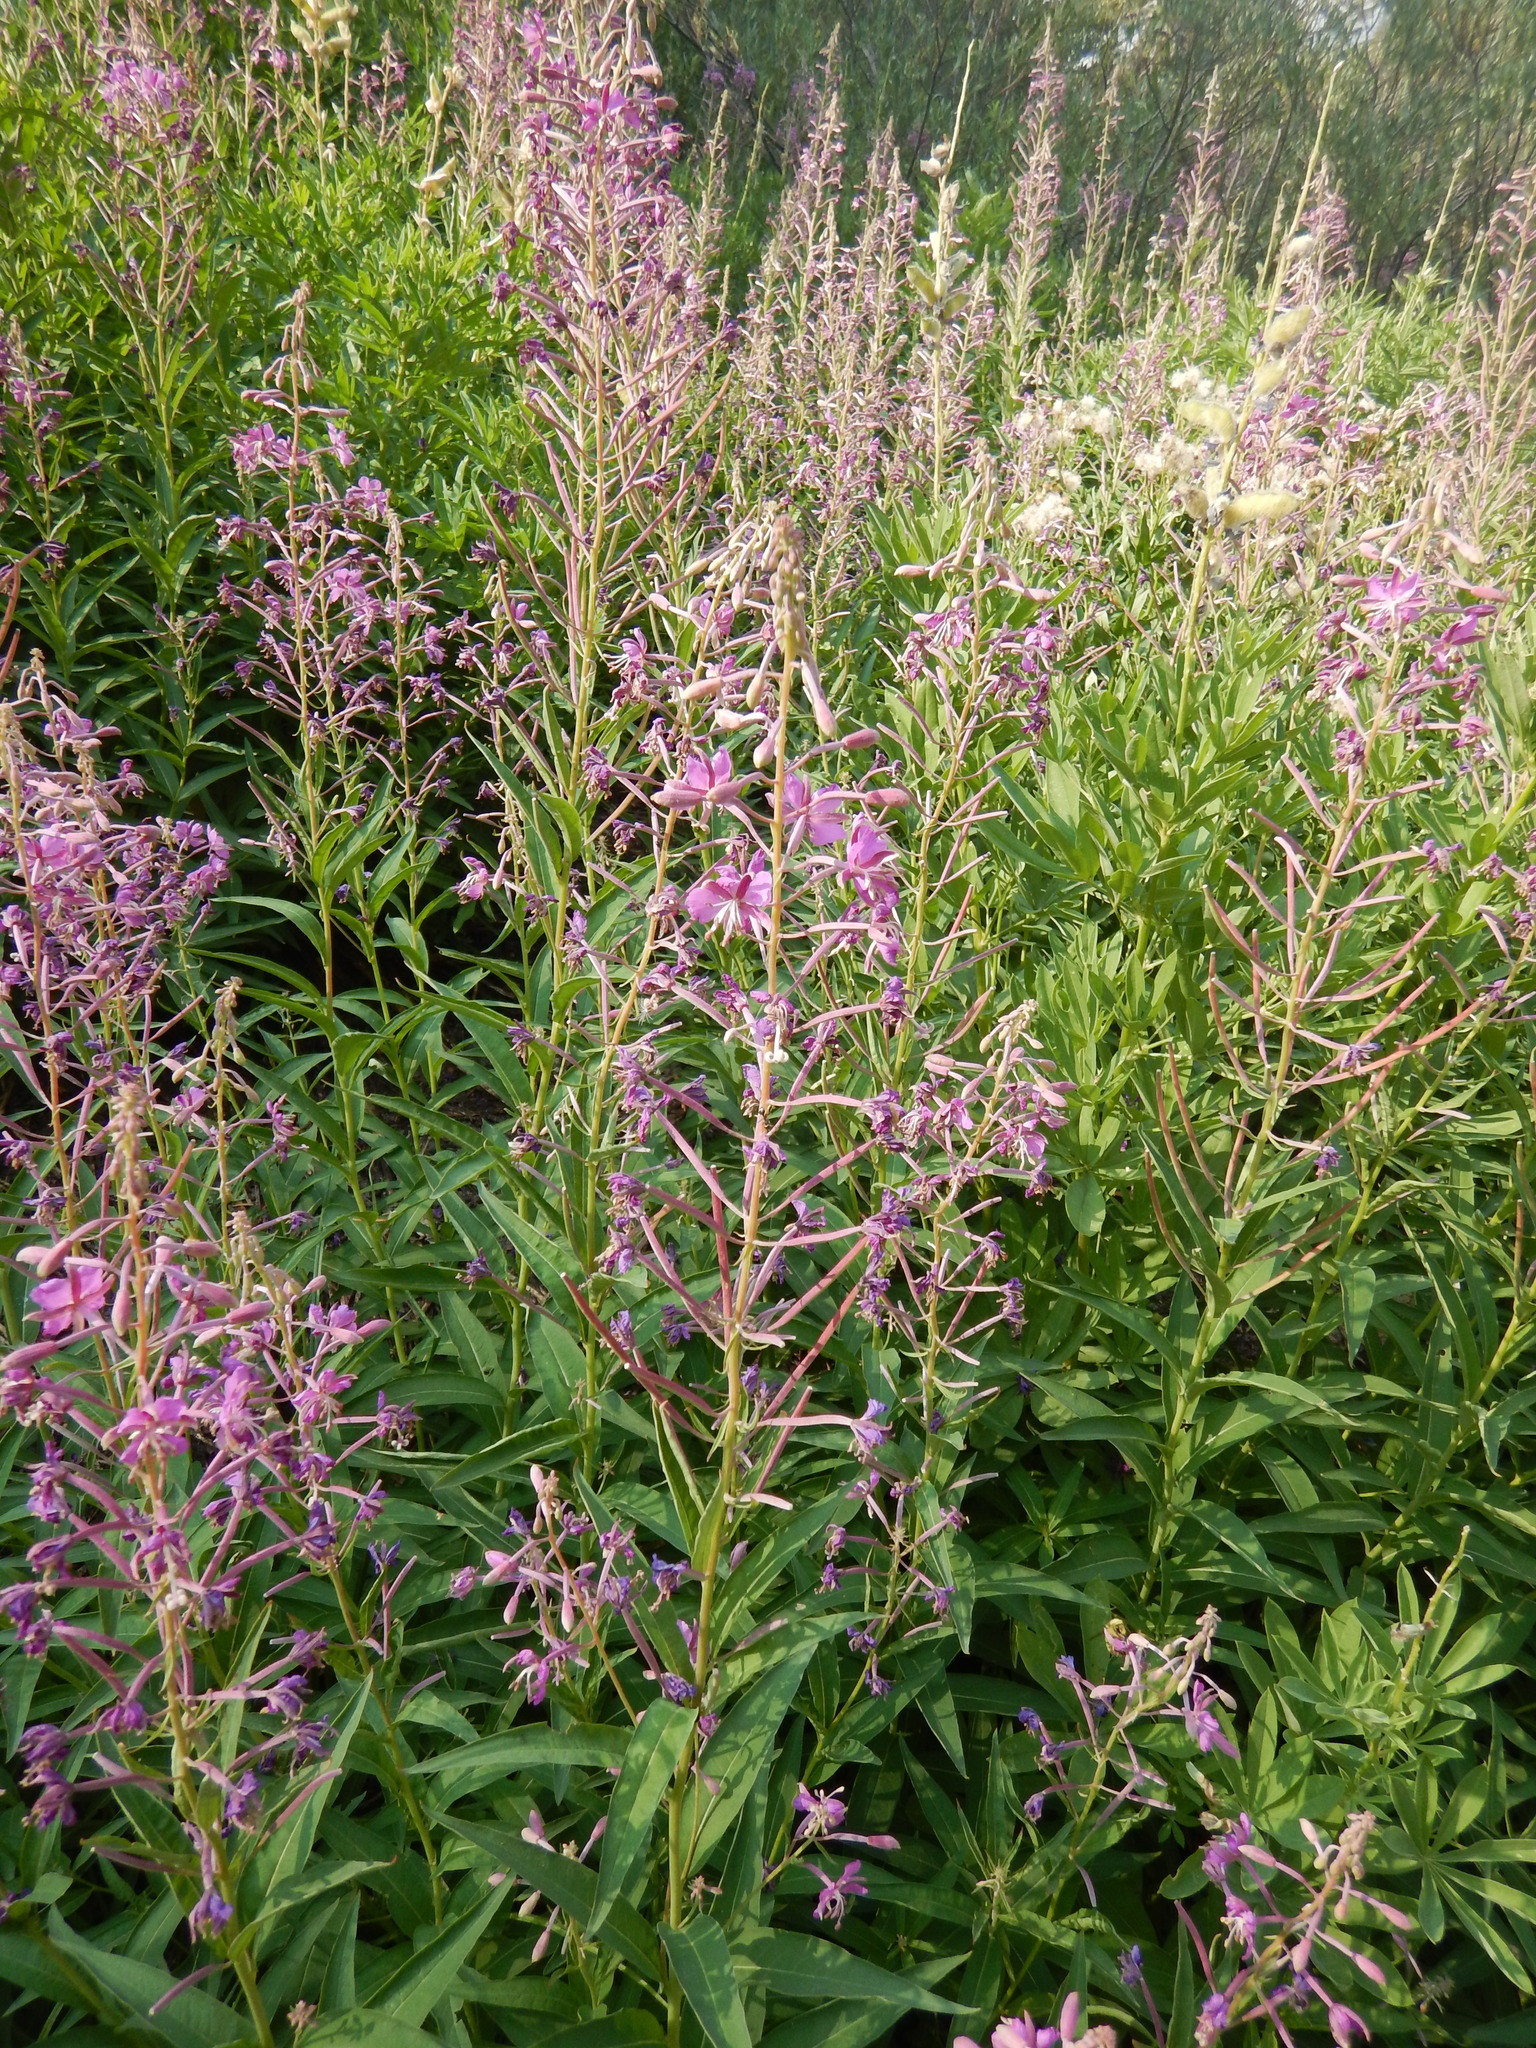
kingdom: Plantae
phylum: Tracheophyta
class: Magnoliopsida
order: Myrtales
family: Onagraceae
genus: Chamaenerion
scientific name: Chamaenerion angustifolium
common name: Fireweed
